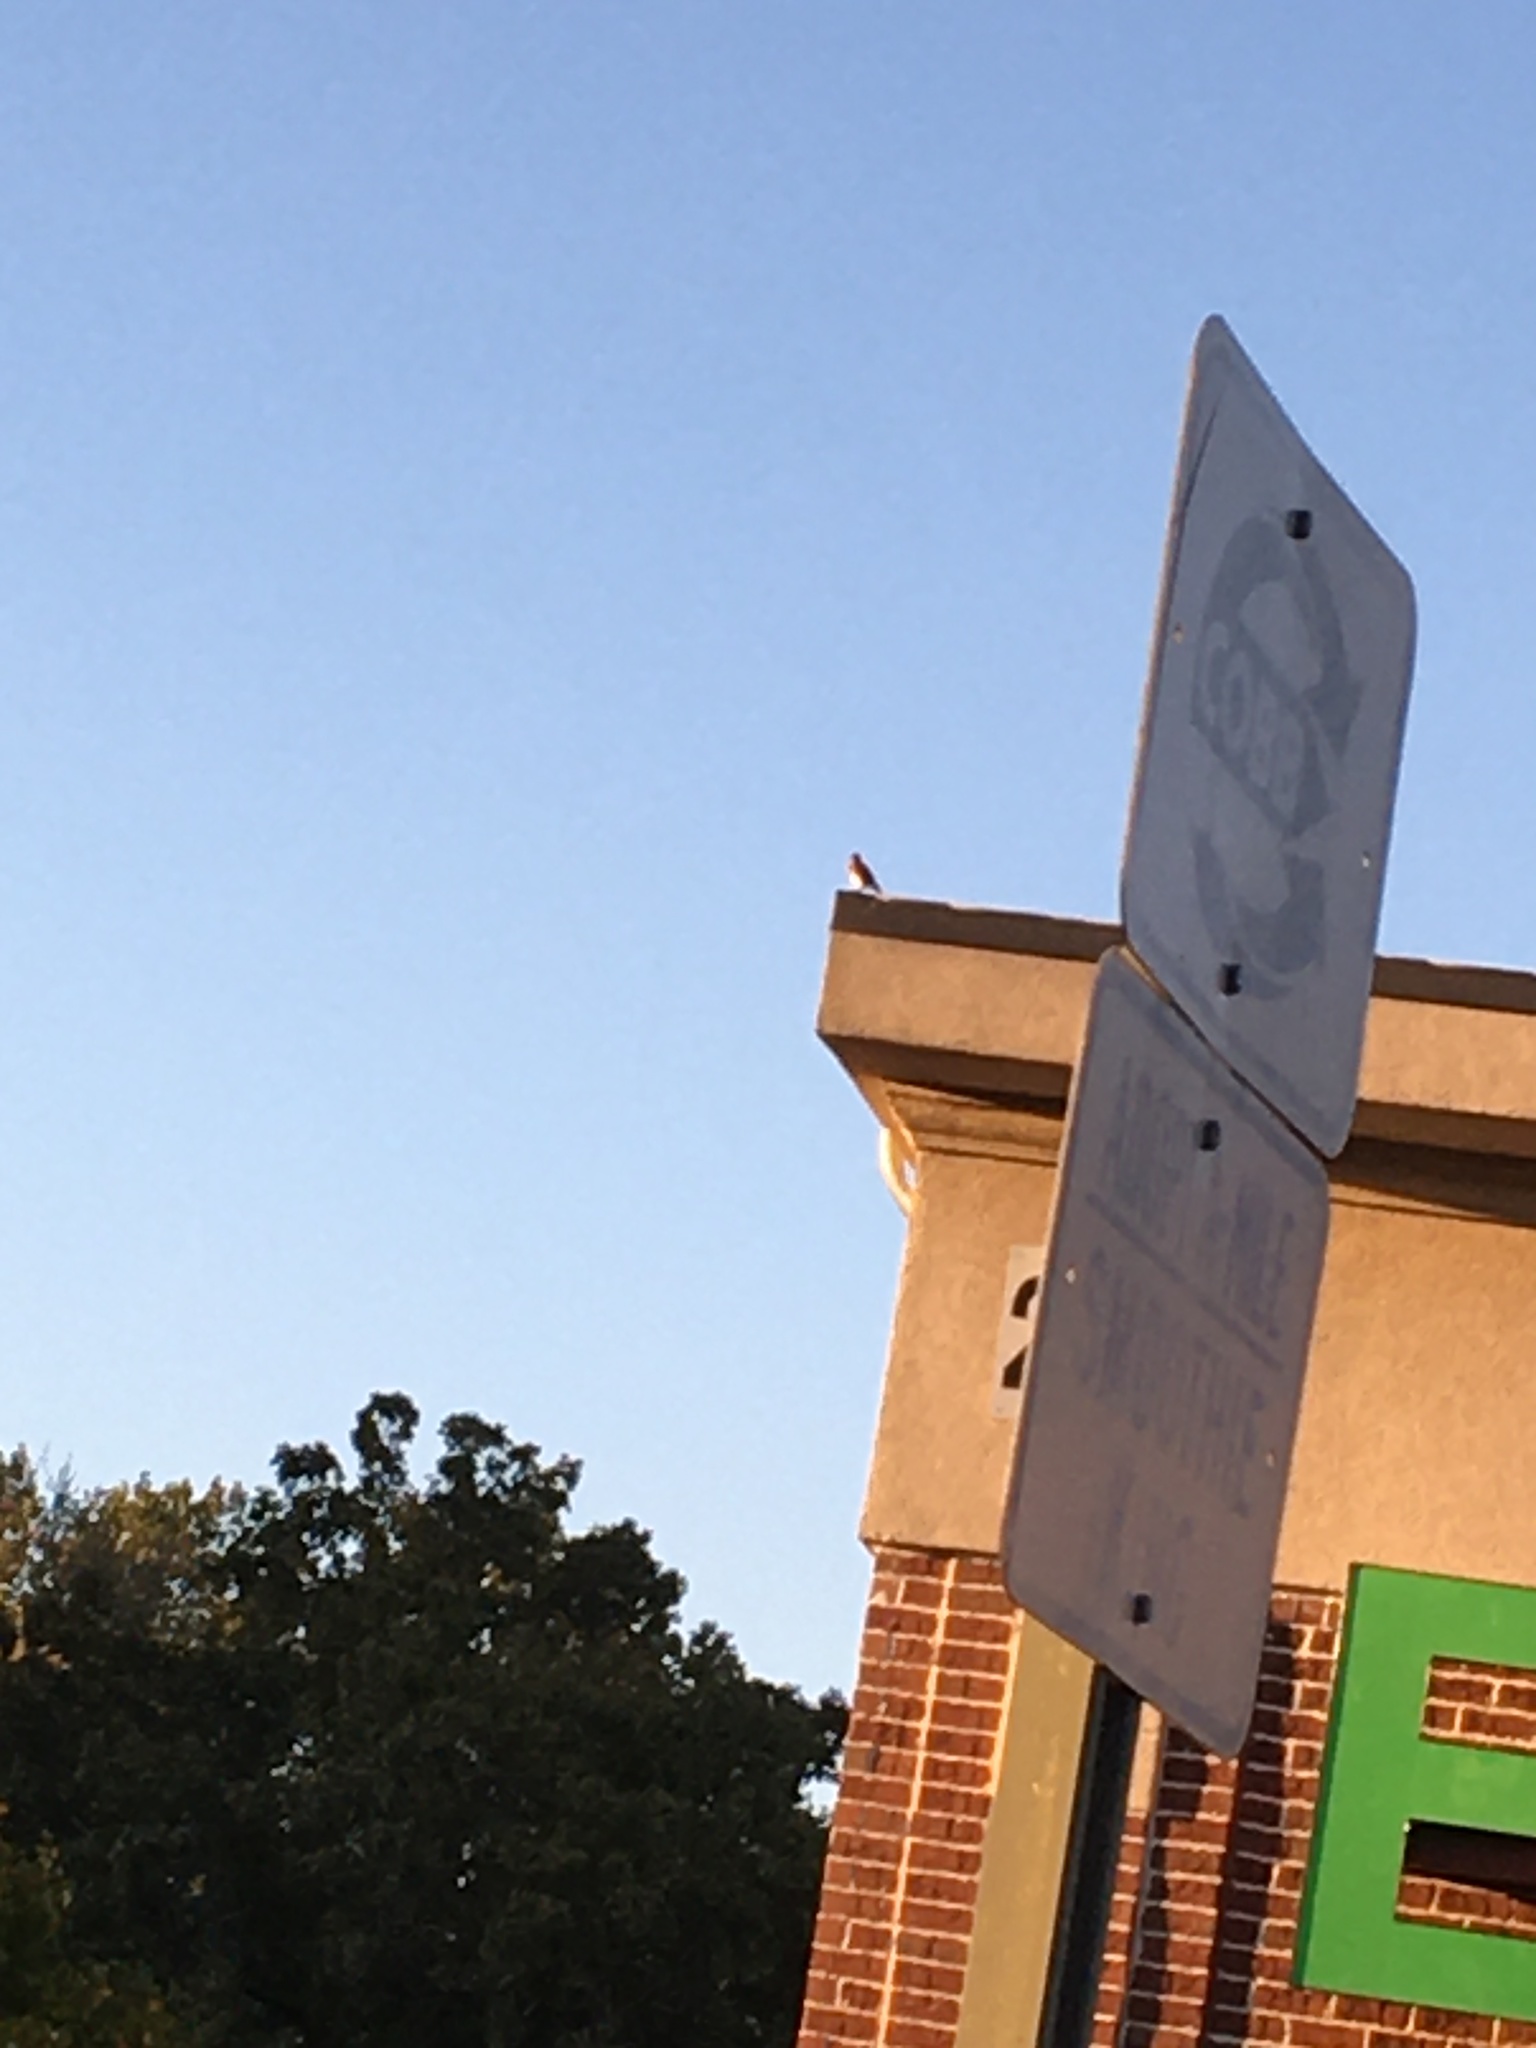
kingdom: Animalia
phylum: Chordata
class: Aves
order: Passeriformes
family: Turdidae
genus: Sialia
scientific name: Sialia sialis
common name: Eastern bluebird
